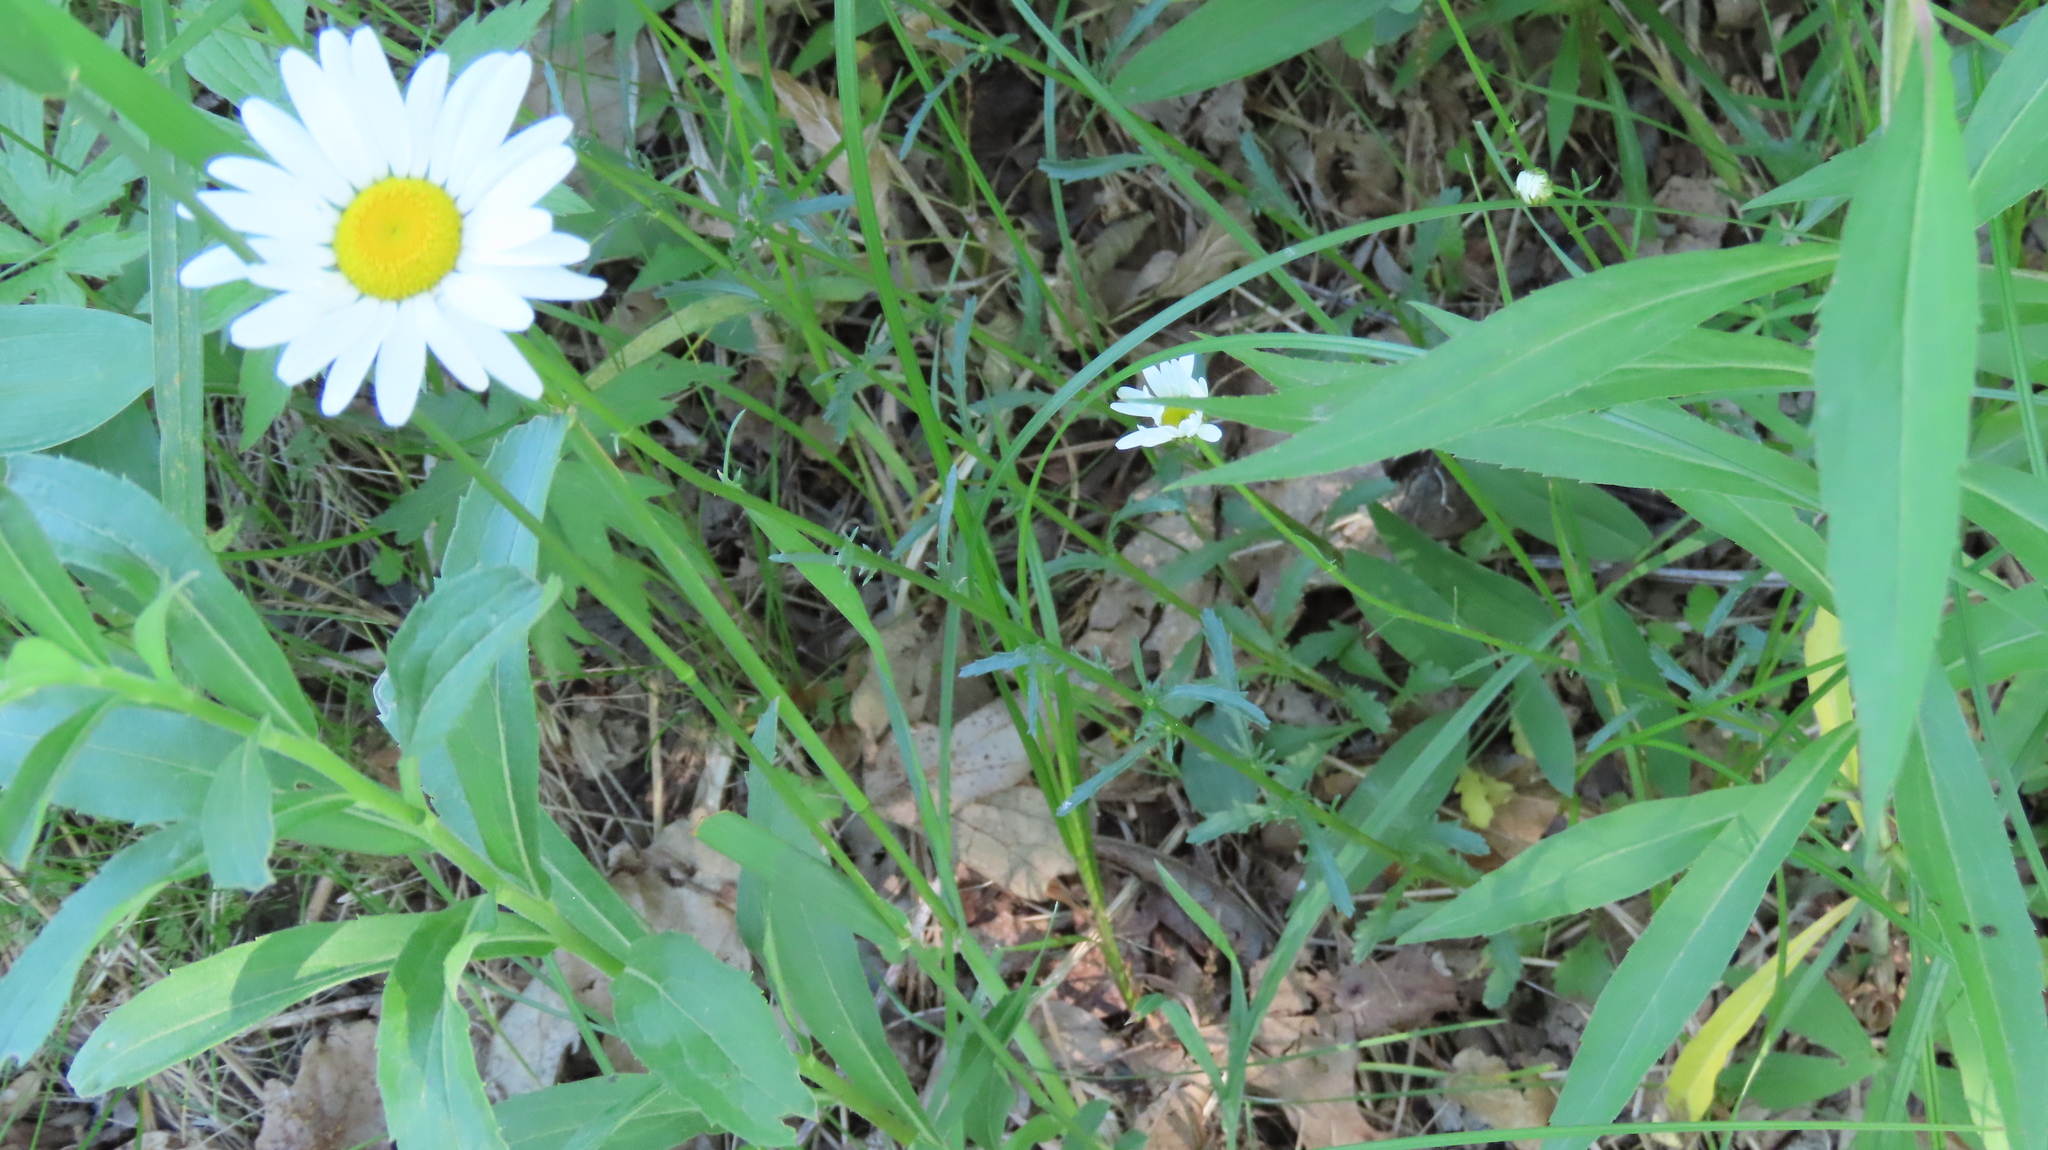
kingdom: Plantae
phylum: Tracheophyta
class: Magnoliopsida
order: Asterales
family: Asteraceae
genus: Leucanthemum
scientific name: Leucanthemum vulgare
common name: Oxeye daisy
